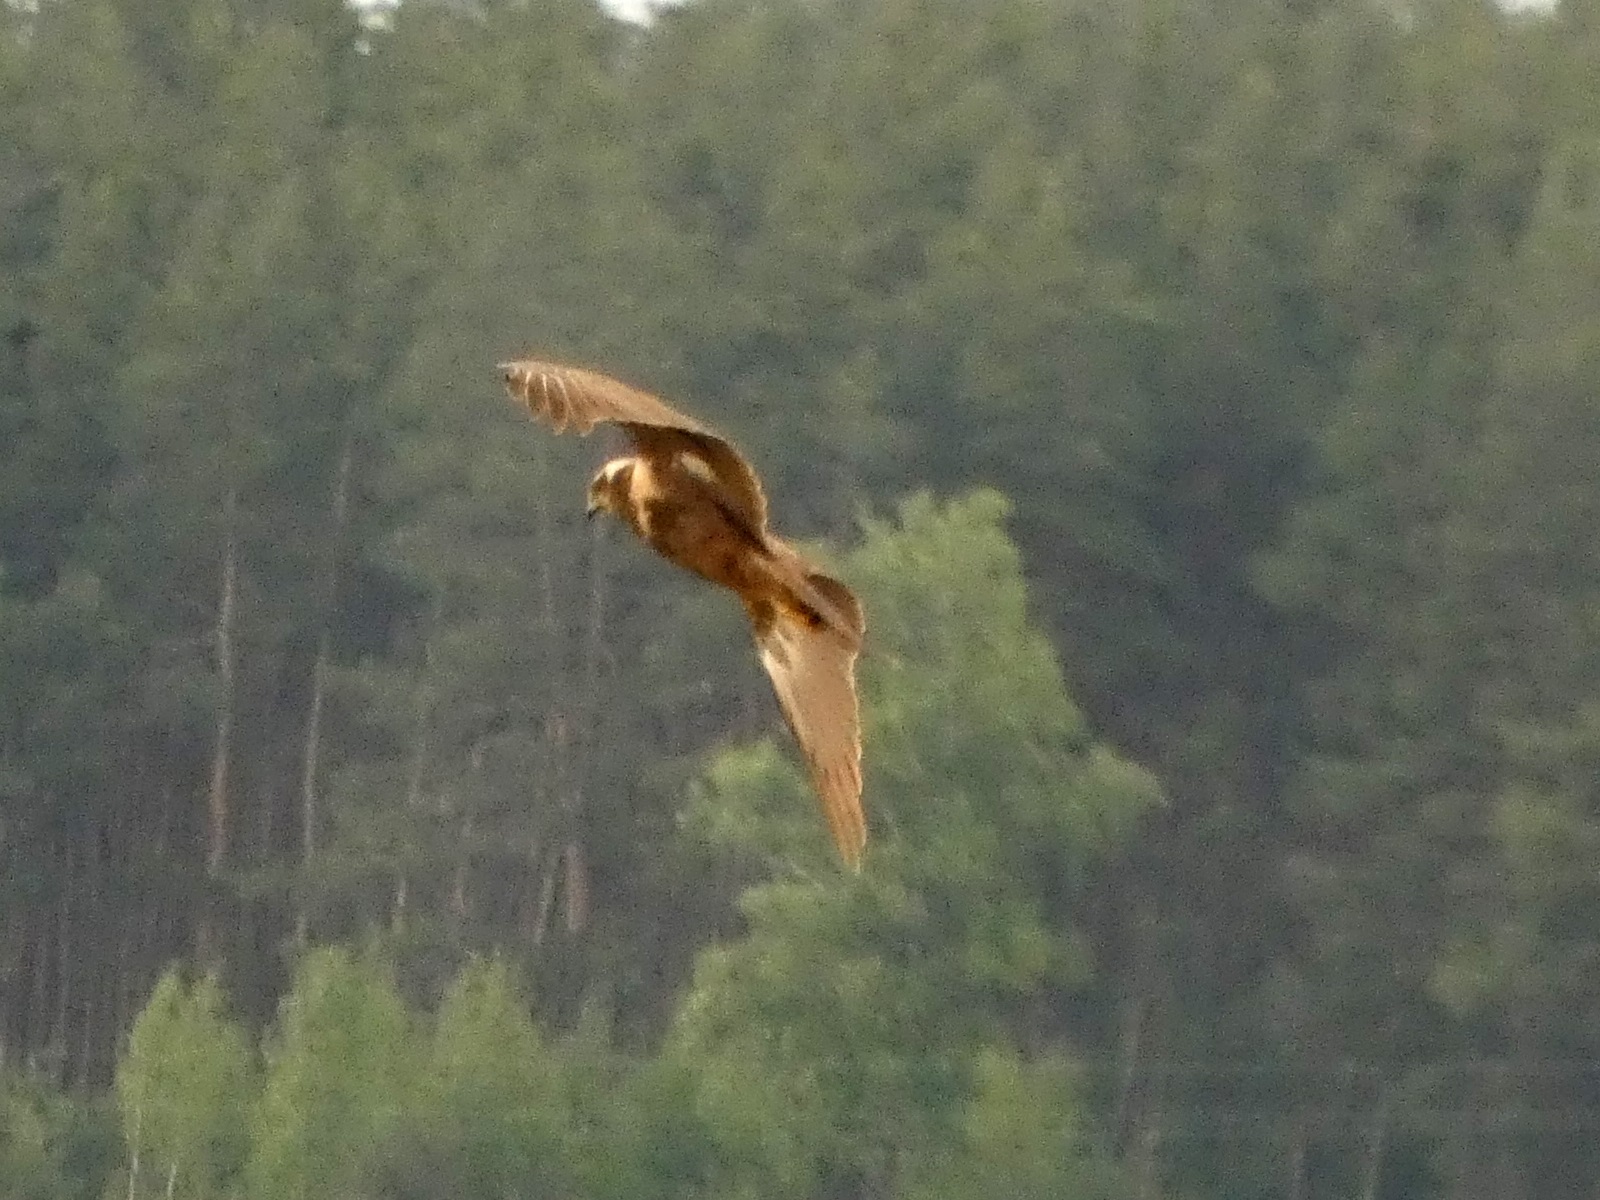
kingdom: Animalia
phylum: Chordata
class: Aves
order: Accipitriformes
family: Accipitridae
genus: Circus
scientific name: Circus aeruginosus
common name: Western marsh harrier
